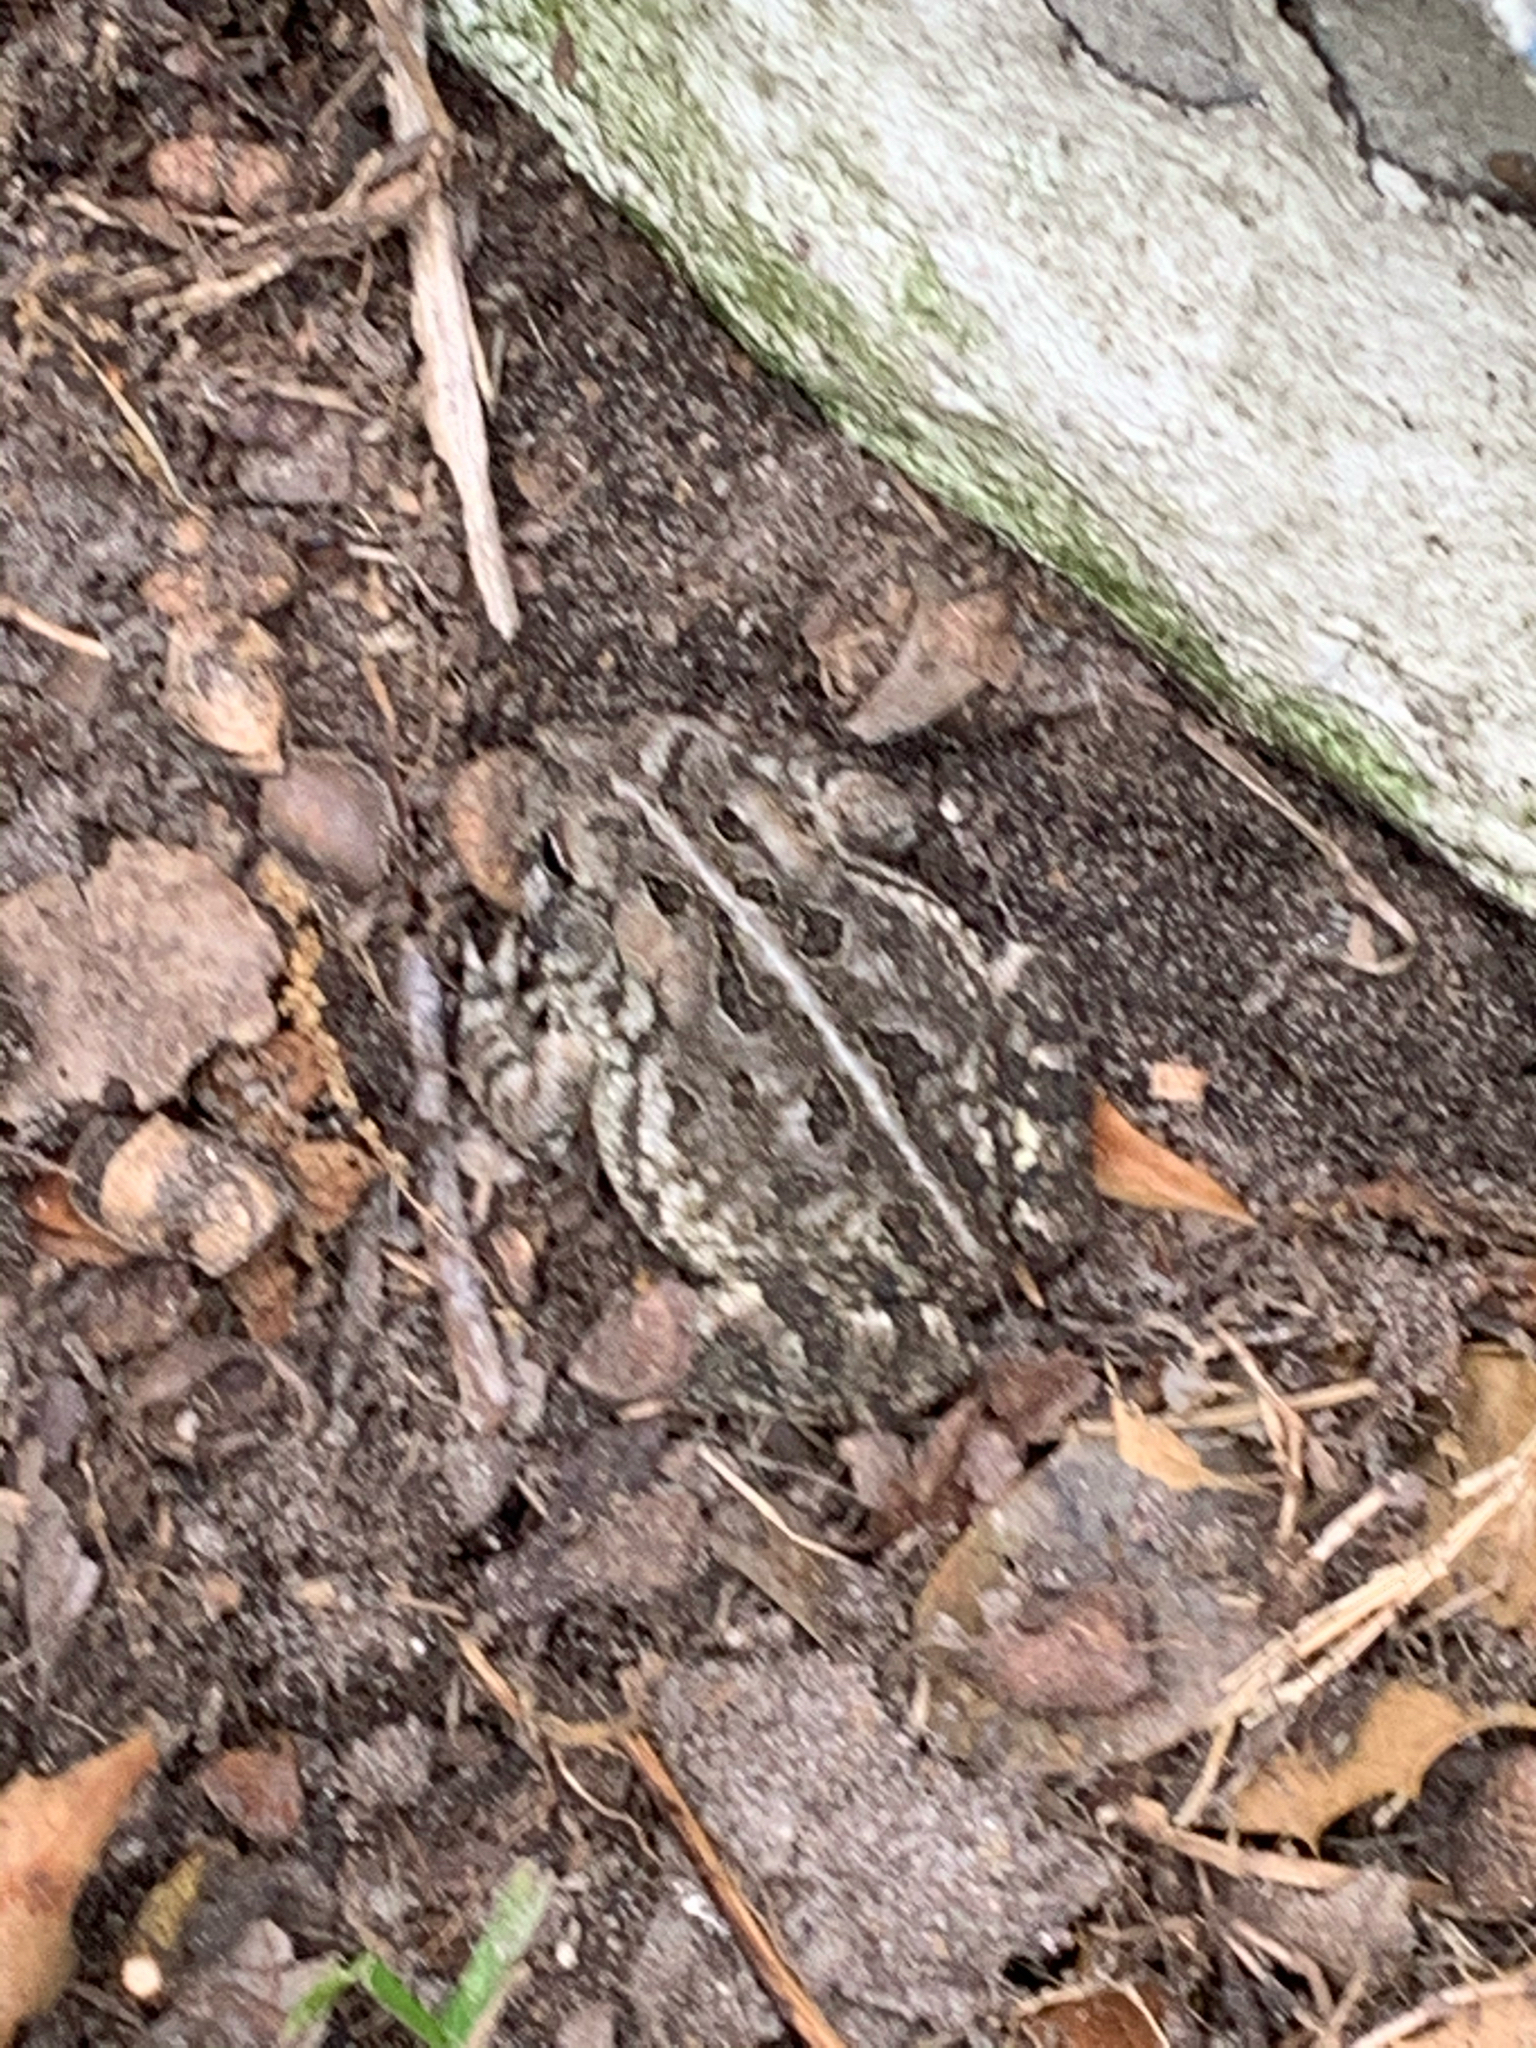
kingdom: Animalia
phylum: Chordata
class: Amphibia
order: Anura
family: Bufonidae
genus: Anaxyrus
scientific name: Anaxyrus fowleri
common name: Fowler's toad
